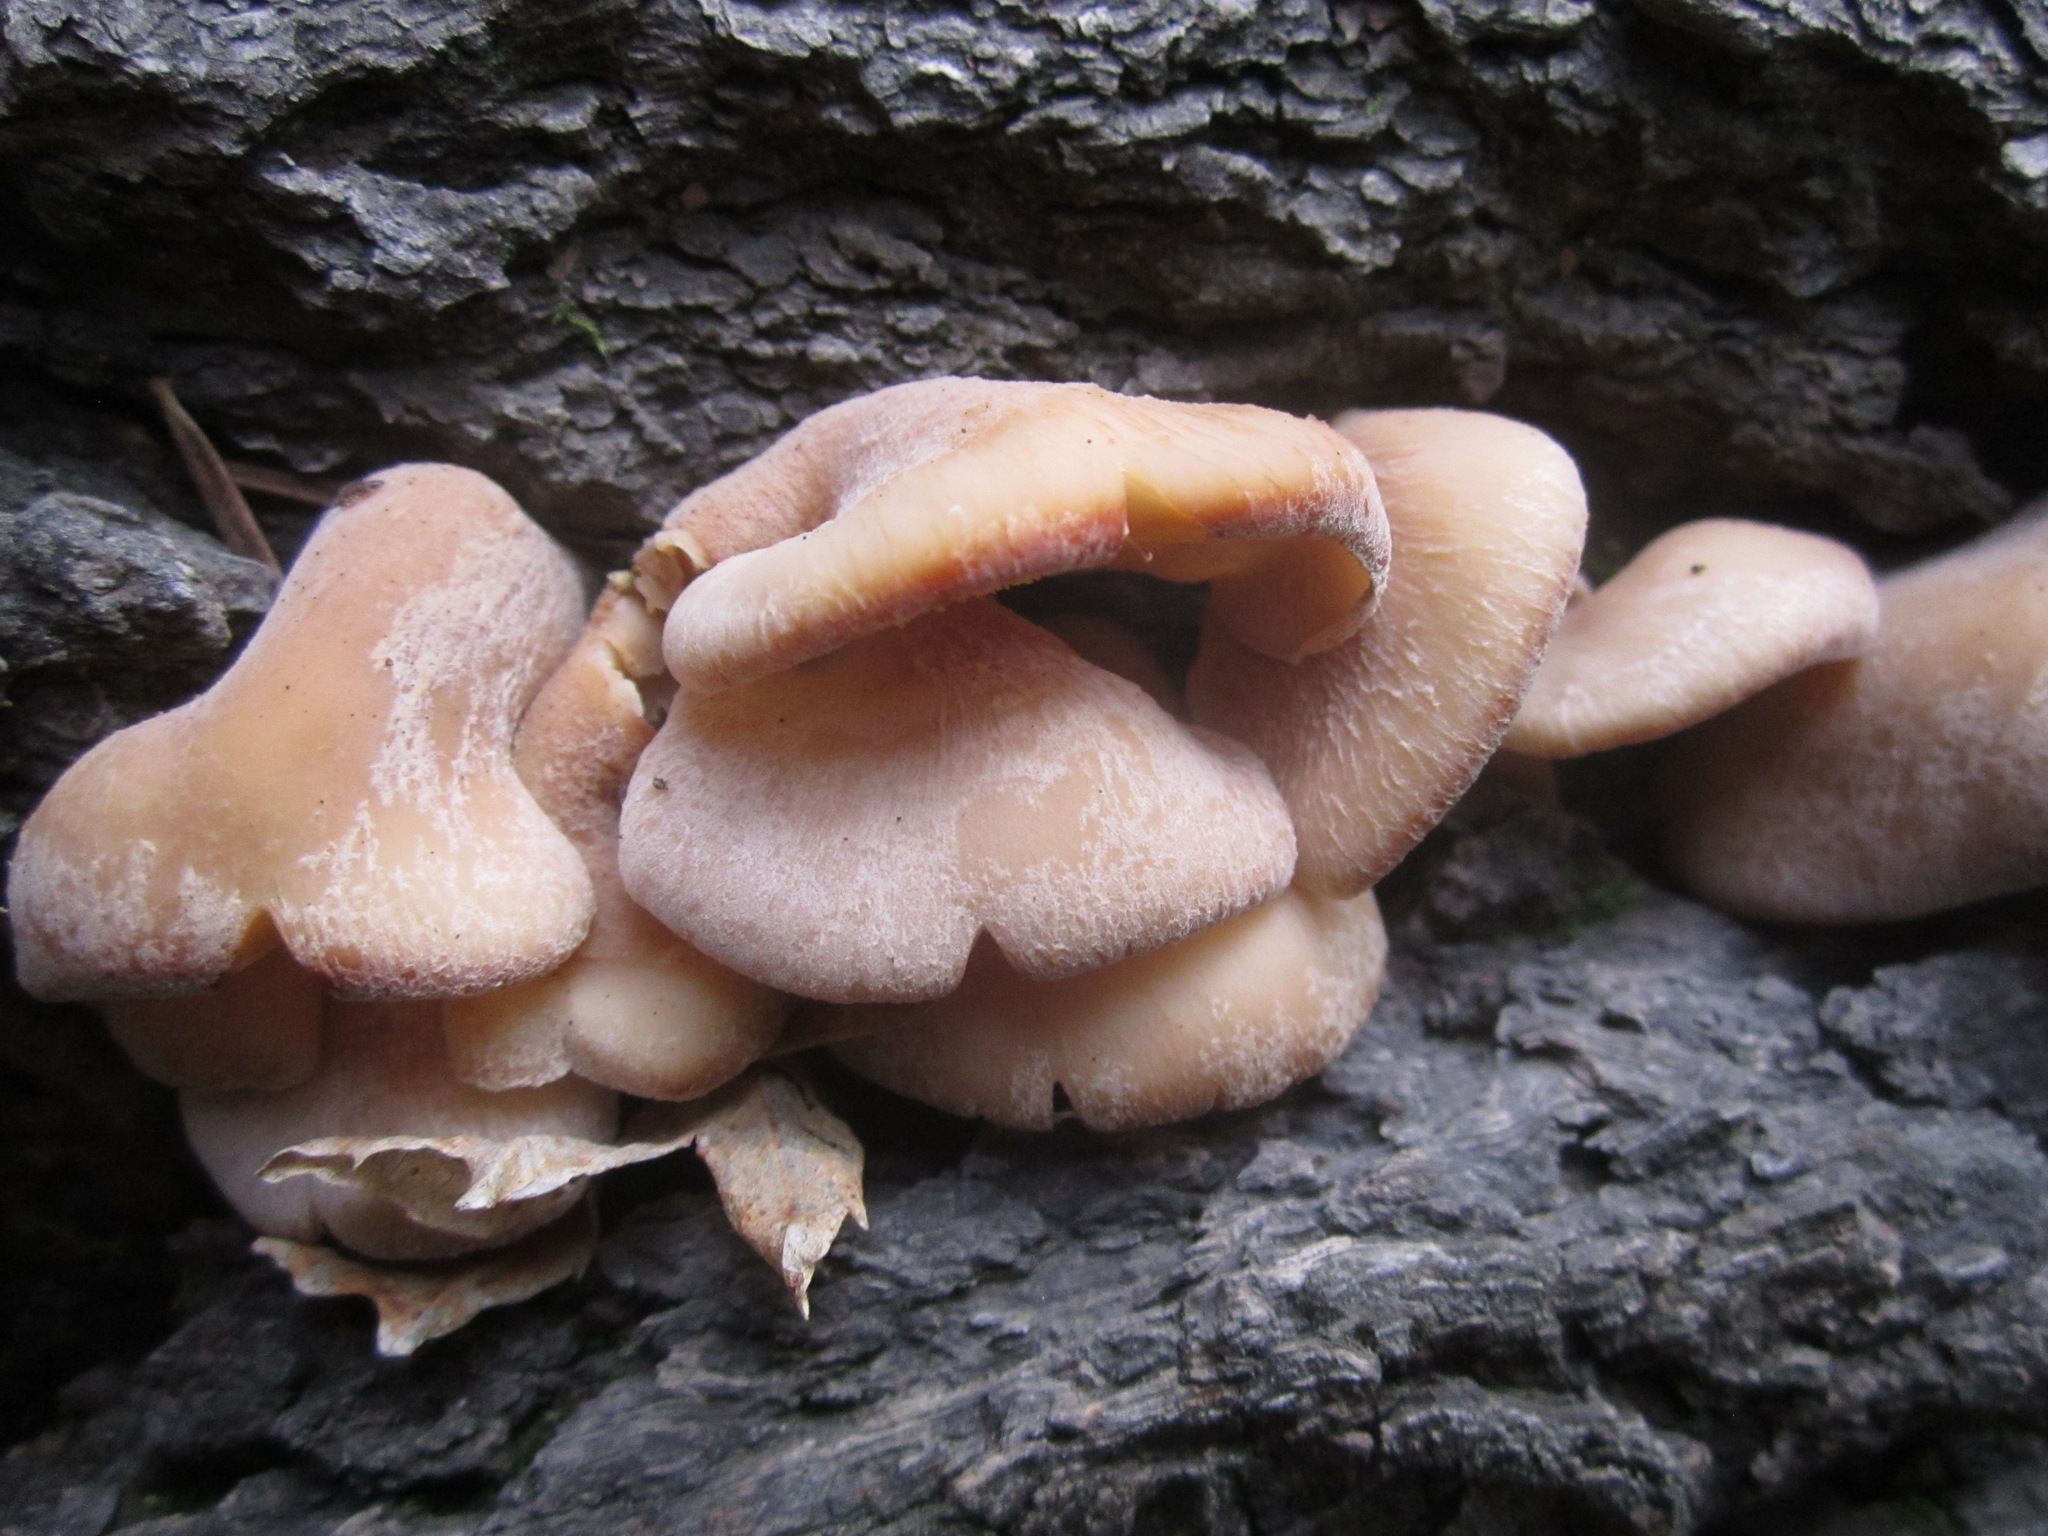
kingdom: Fungi
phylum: Basidiomycota
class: Agaricomycetes
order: Russulales
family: Auriscalpiaceae
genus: Lentinellus
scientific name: Lentinellus ursinus
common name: Bear lentinus
